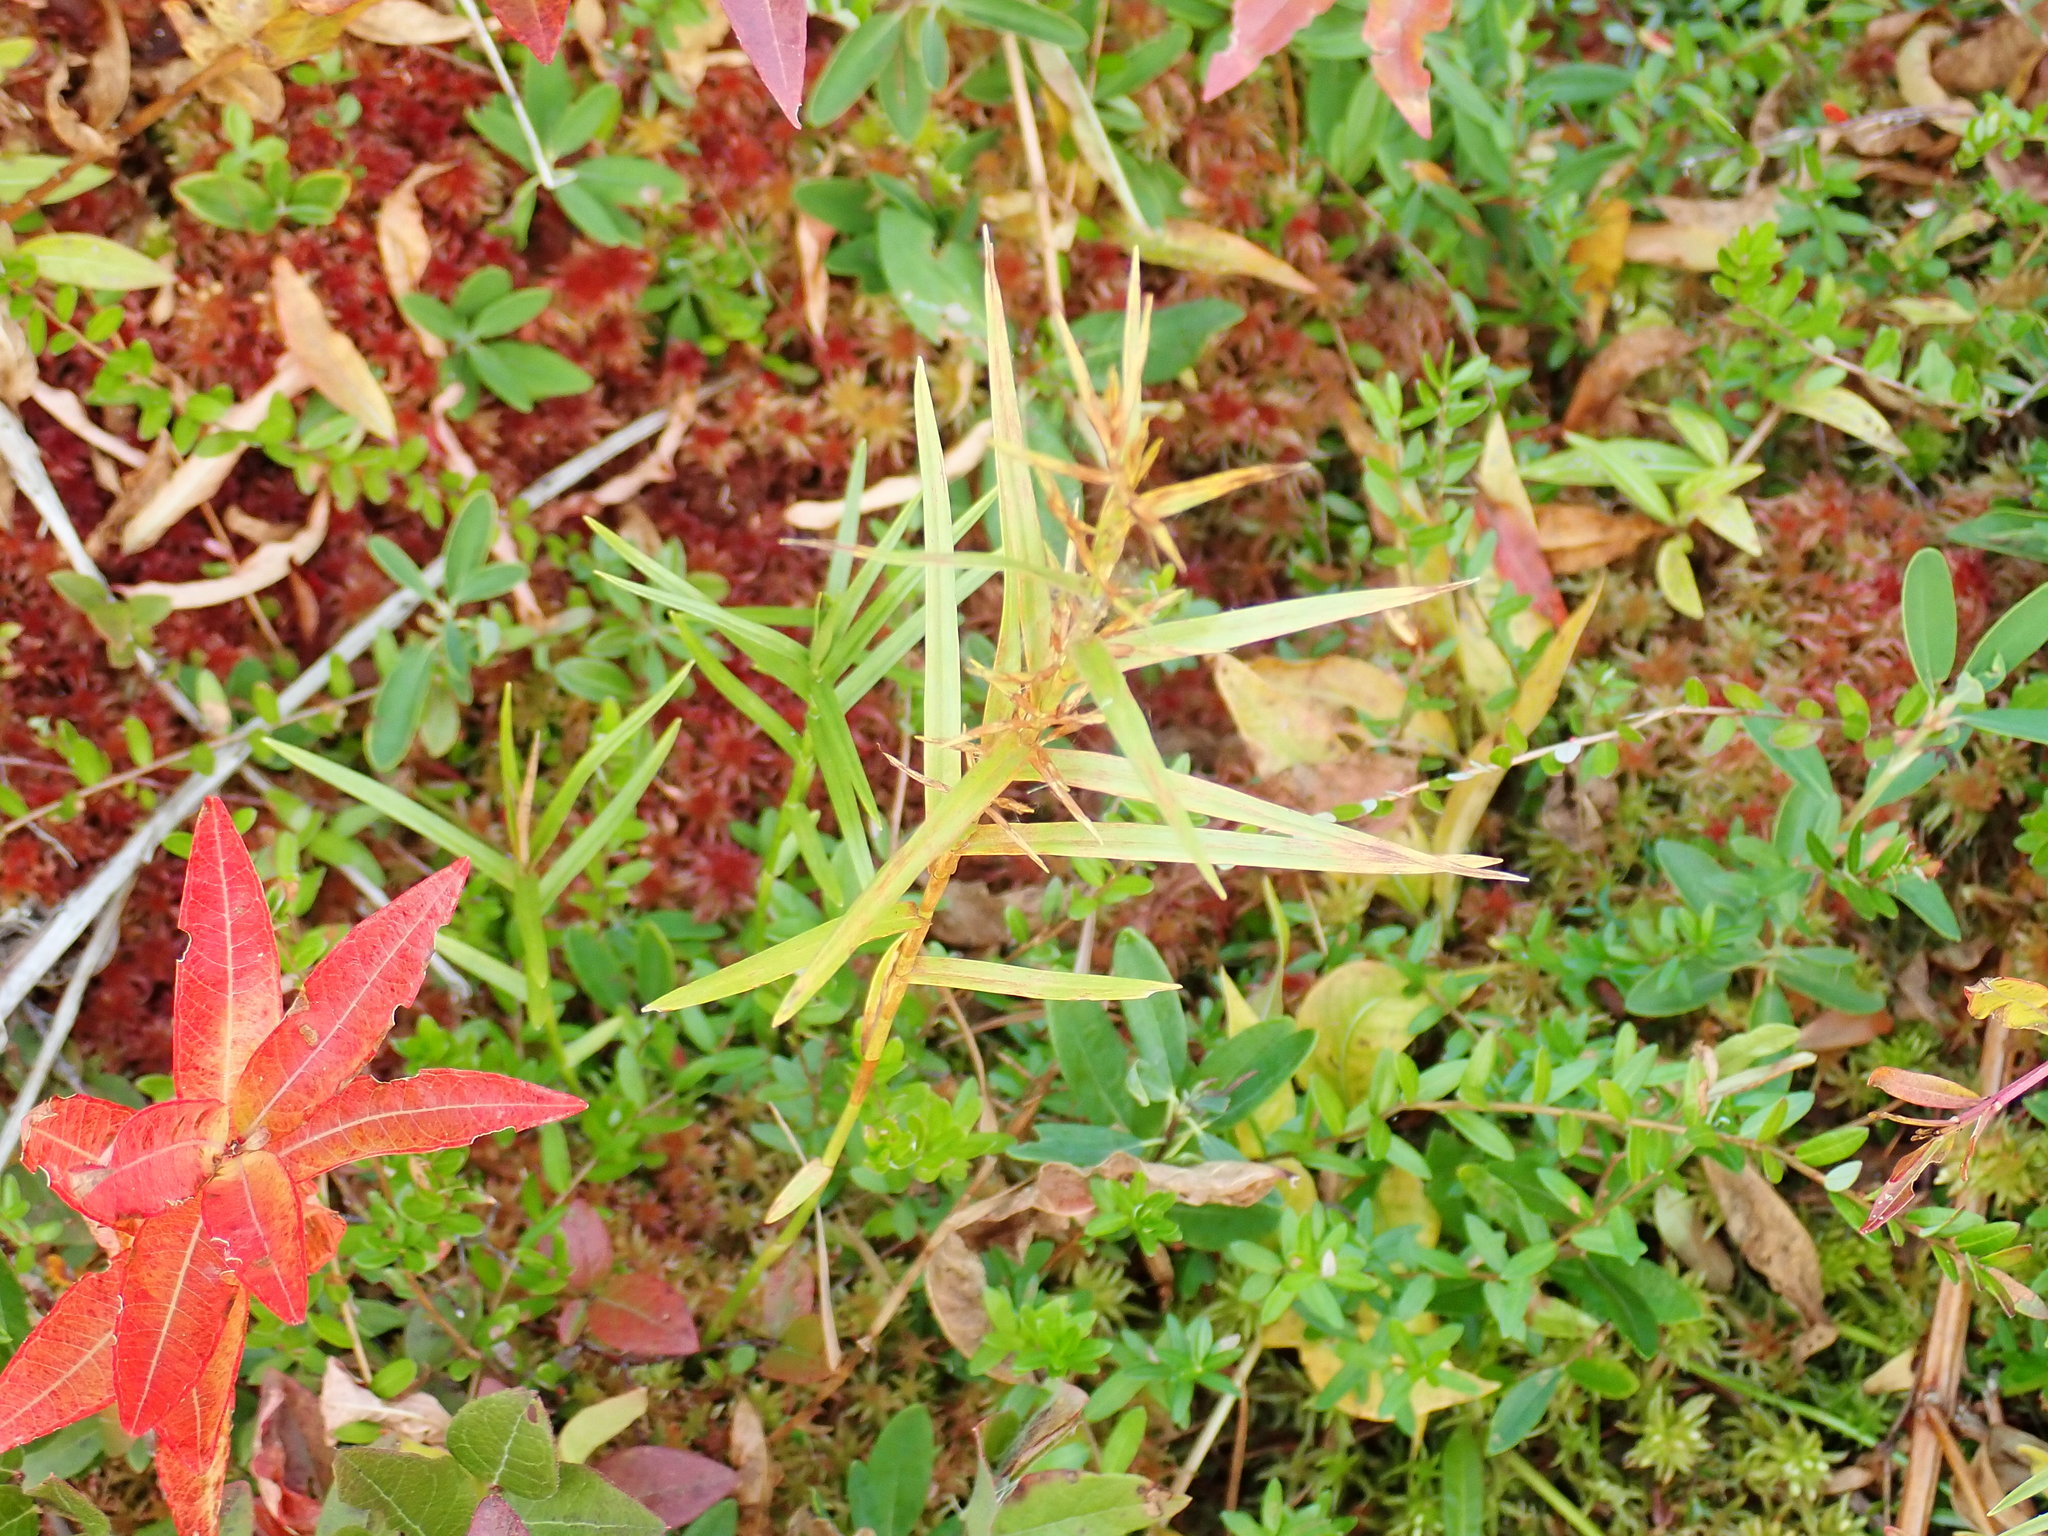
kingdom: Plantae
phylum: Tracheophyta
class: Liliopsida
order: Poales
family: Cyperaceae
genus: Dulichium
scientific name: Dulichium arundinaceum
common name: Three-way sedge
